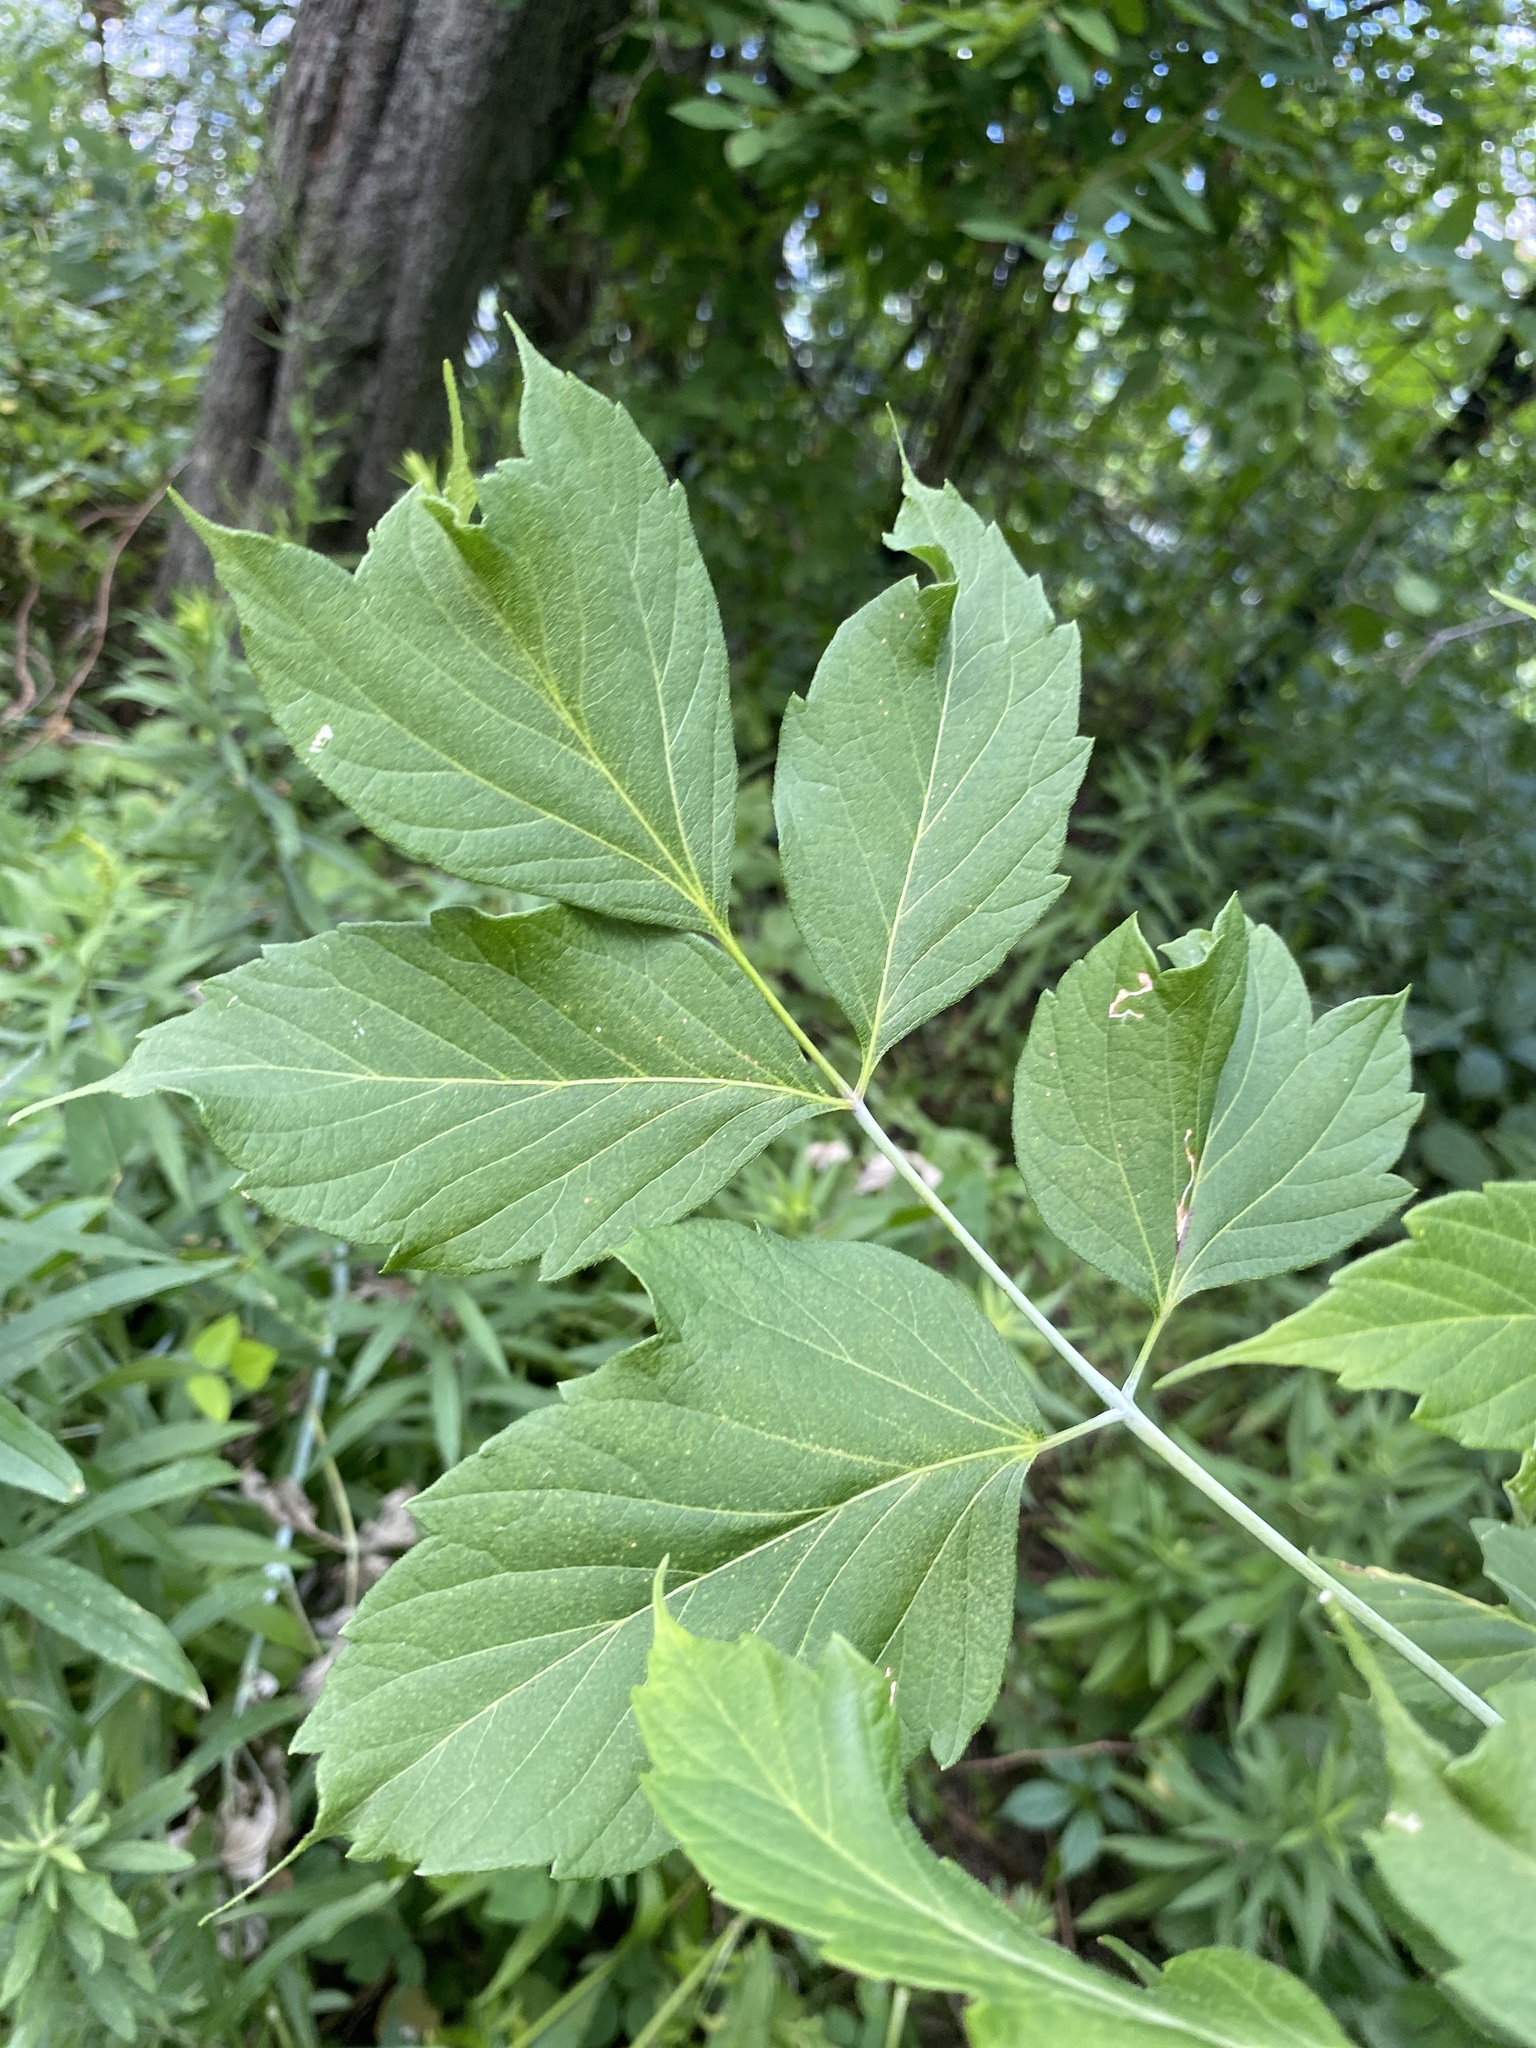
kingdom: Plantae
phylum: Tracheophyta
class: Magnoliopsida
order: Sapindales
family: Sapindaceae
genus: Acer
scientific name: Acer negundo
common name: Ashleaf maple
